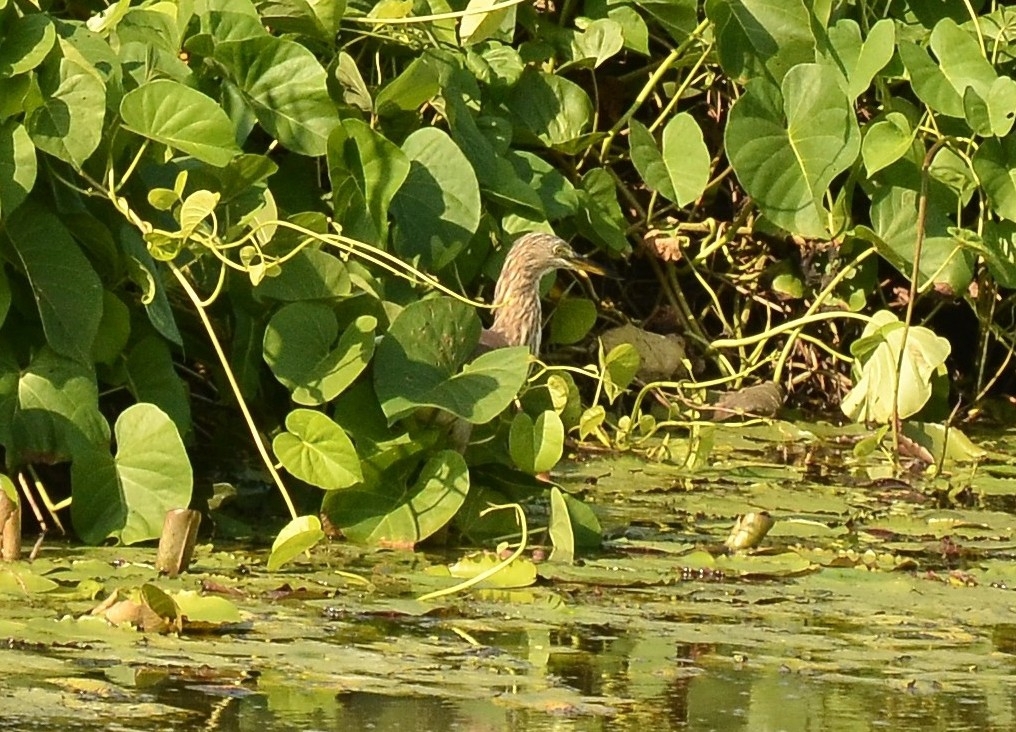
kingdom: Animalia
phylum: Chordata
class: Aves
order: Pelecaniformes
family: Ardeidae
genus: Ardeola
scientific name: Ardeola grayii
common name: Indian pond heron
